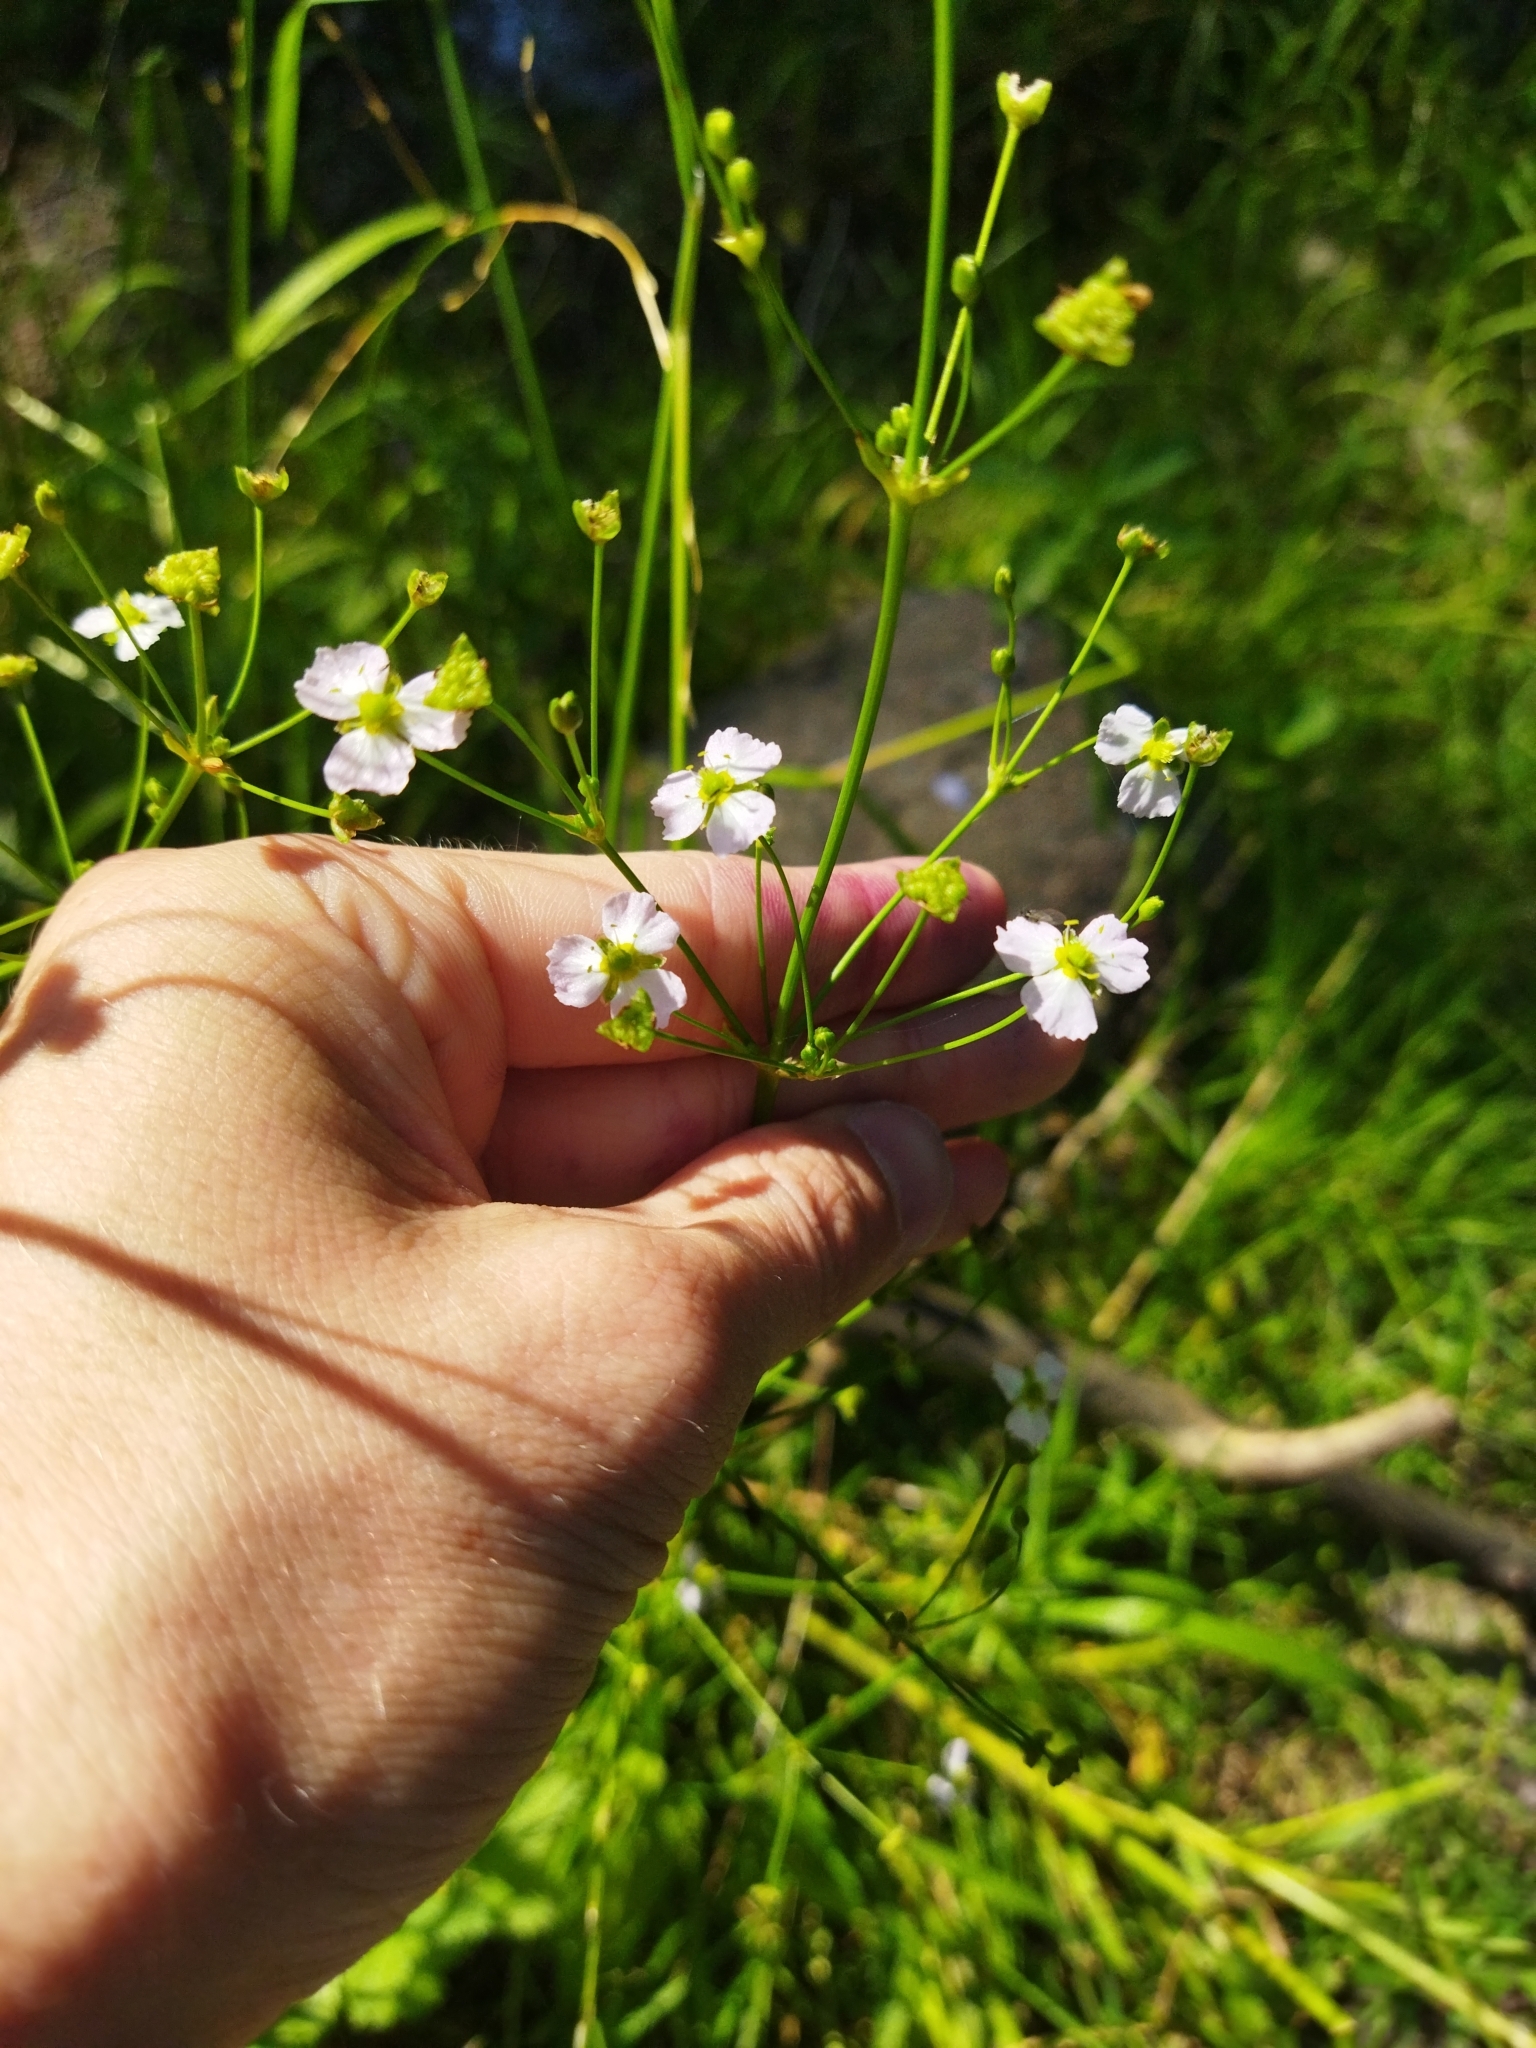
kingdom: Plantae
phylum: Tracheophyta
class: Liliopsida
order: Alismatales
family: Alismataceae
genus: Alisma
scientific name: Alisma plantago-aquatica
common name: Water-plantain
